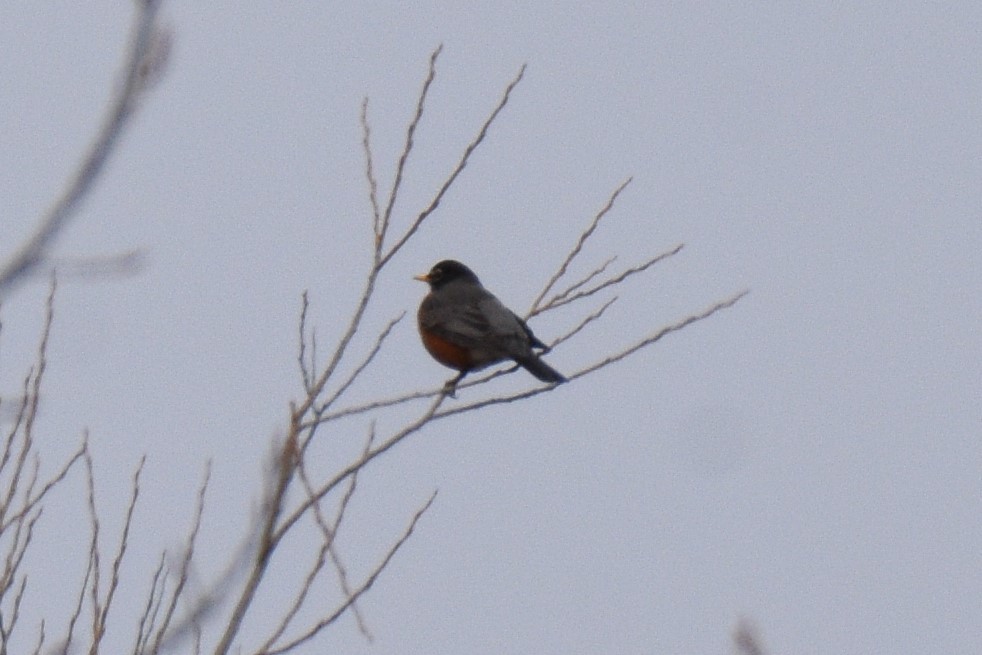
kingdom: Animalia
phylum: Chordata
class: Aves
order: Passeriformes
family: Turdidae
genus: Turdus
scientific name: Turdus migratorius
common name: American robin
